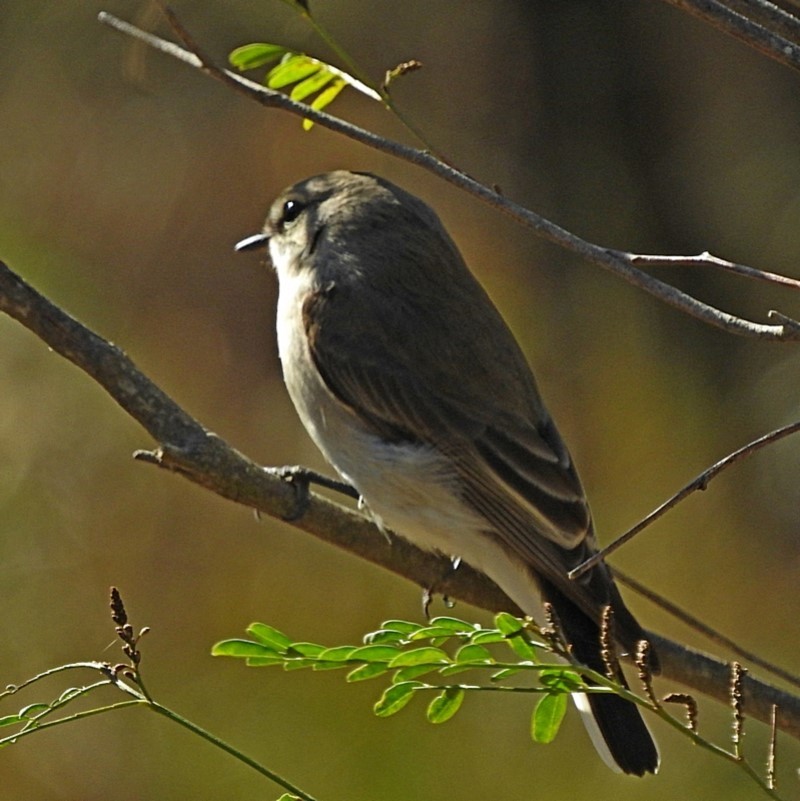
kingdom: Animalia
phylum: Chordata
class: Aves
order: Passeriformes
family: Petroicidae
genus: Microeca
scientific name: Microeca fascinans
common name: Jacky winter
